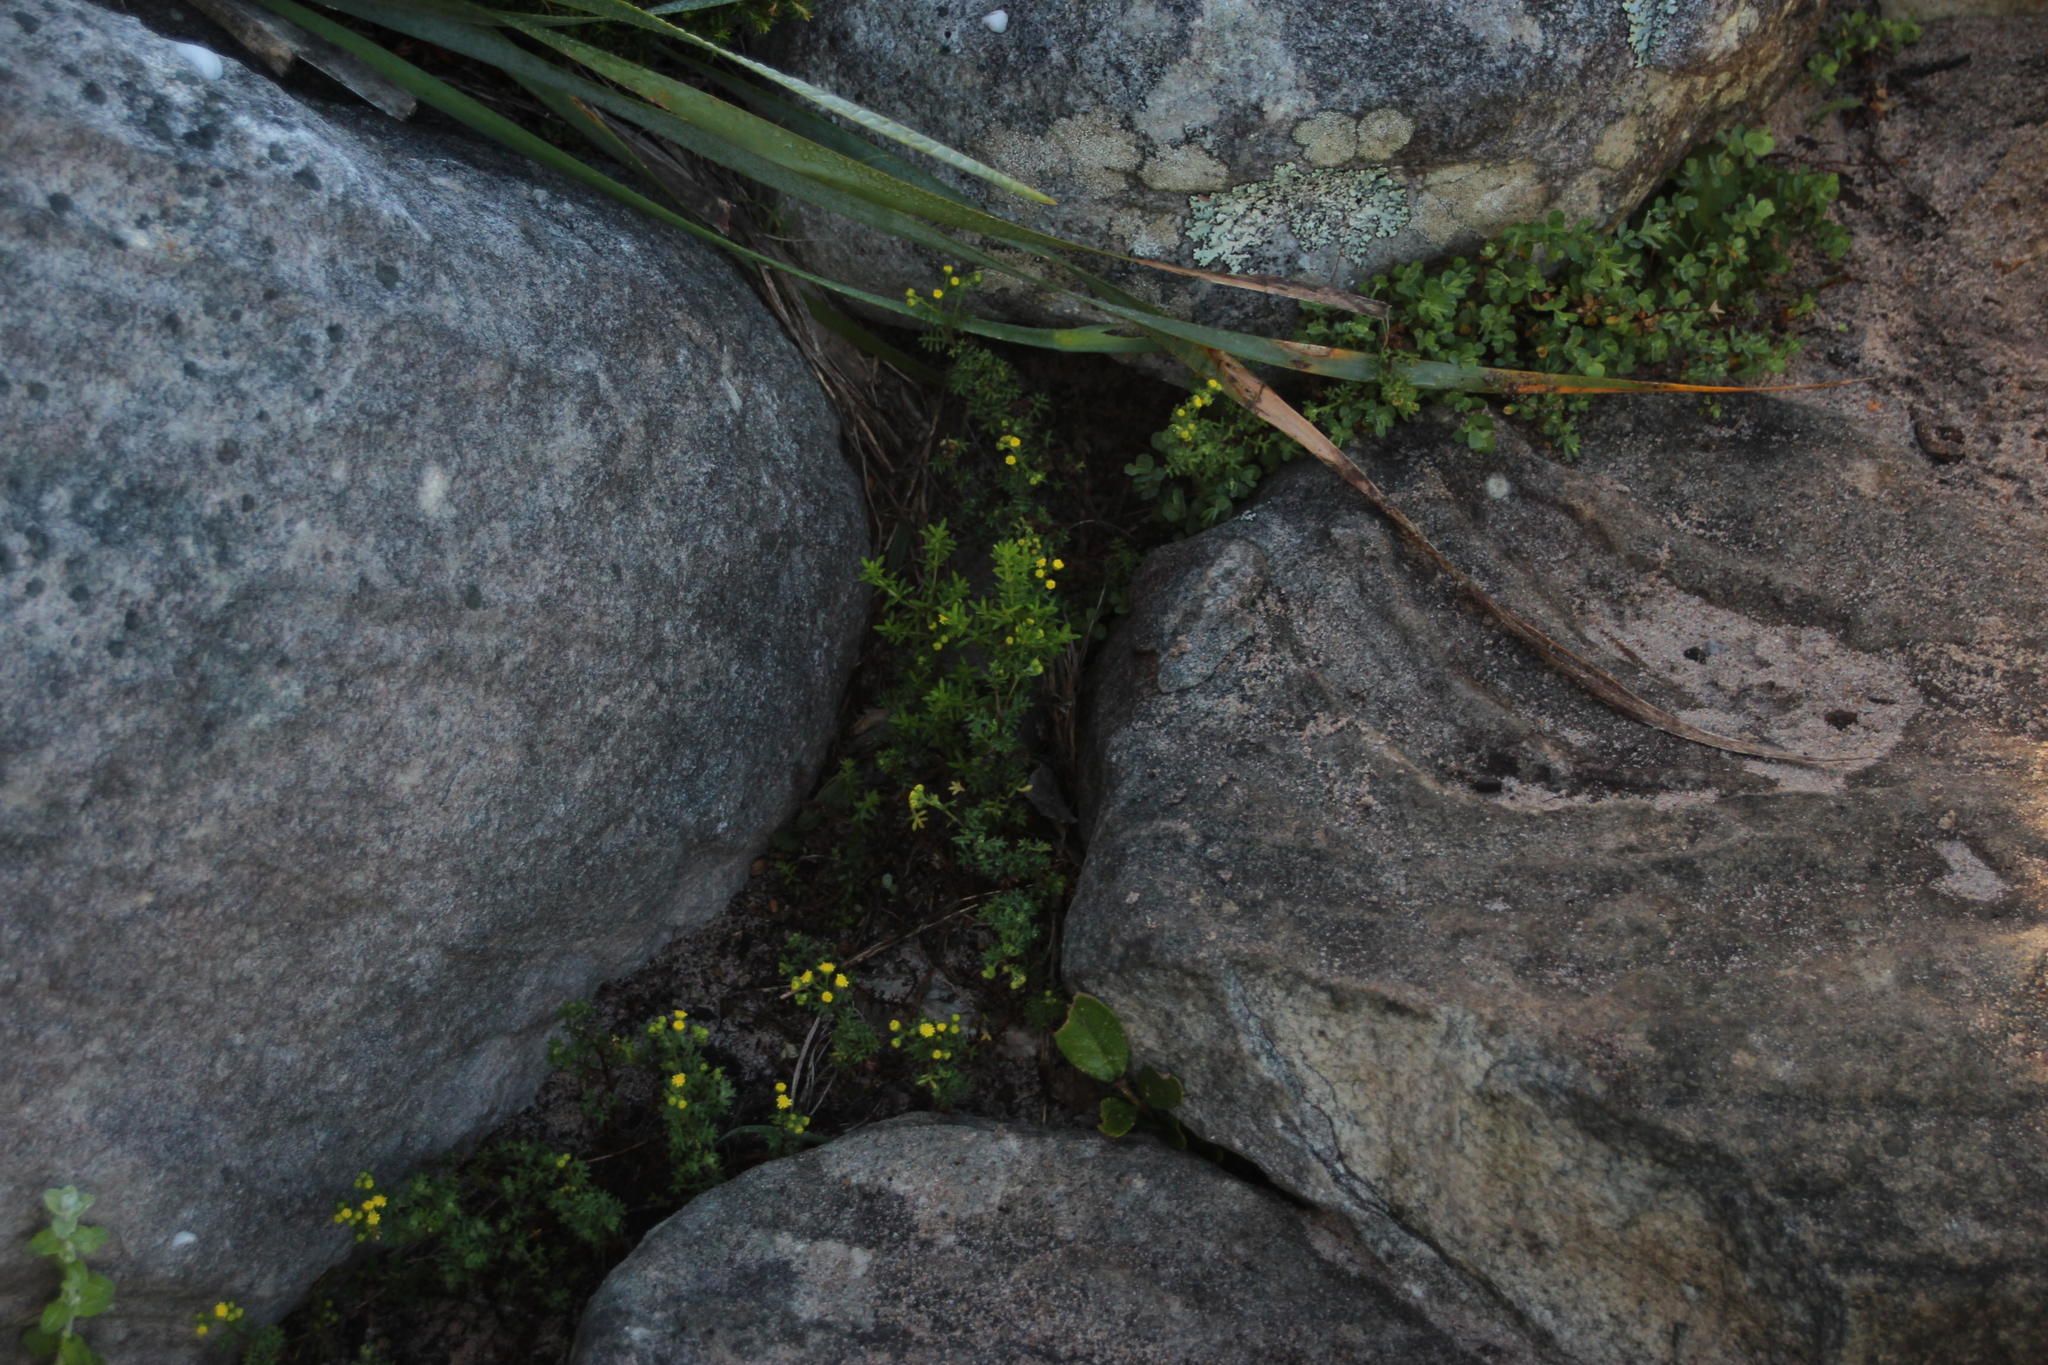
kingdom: Plantae
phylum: Tracheophyta
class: Magnoliopsida
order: Asterales
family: Asteraceae
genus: Hippia
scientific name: Hippia pilosa
